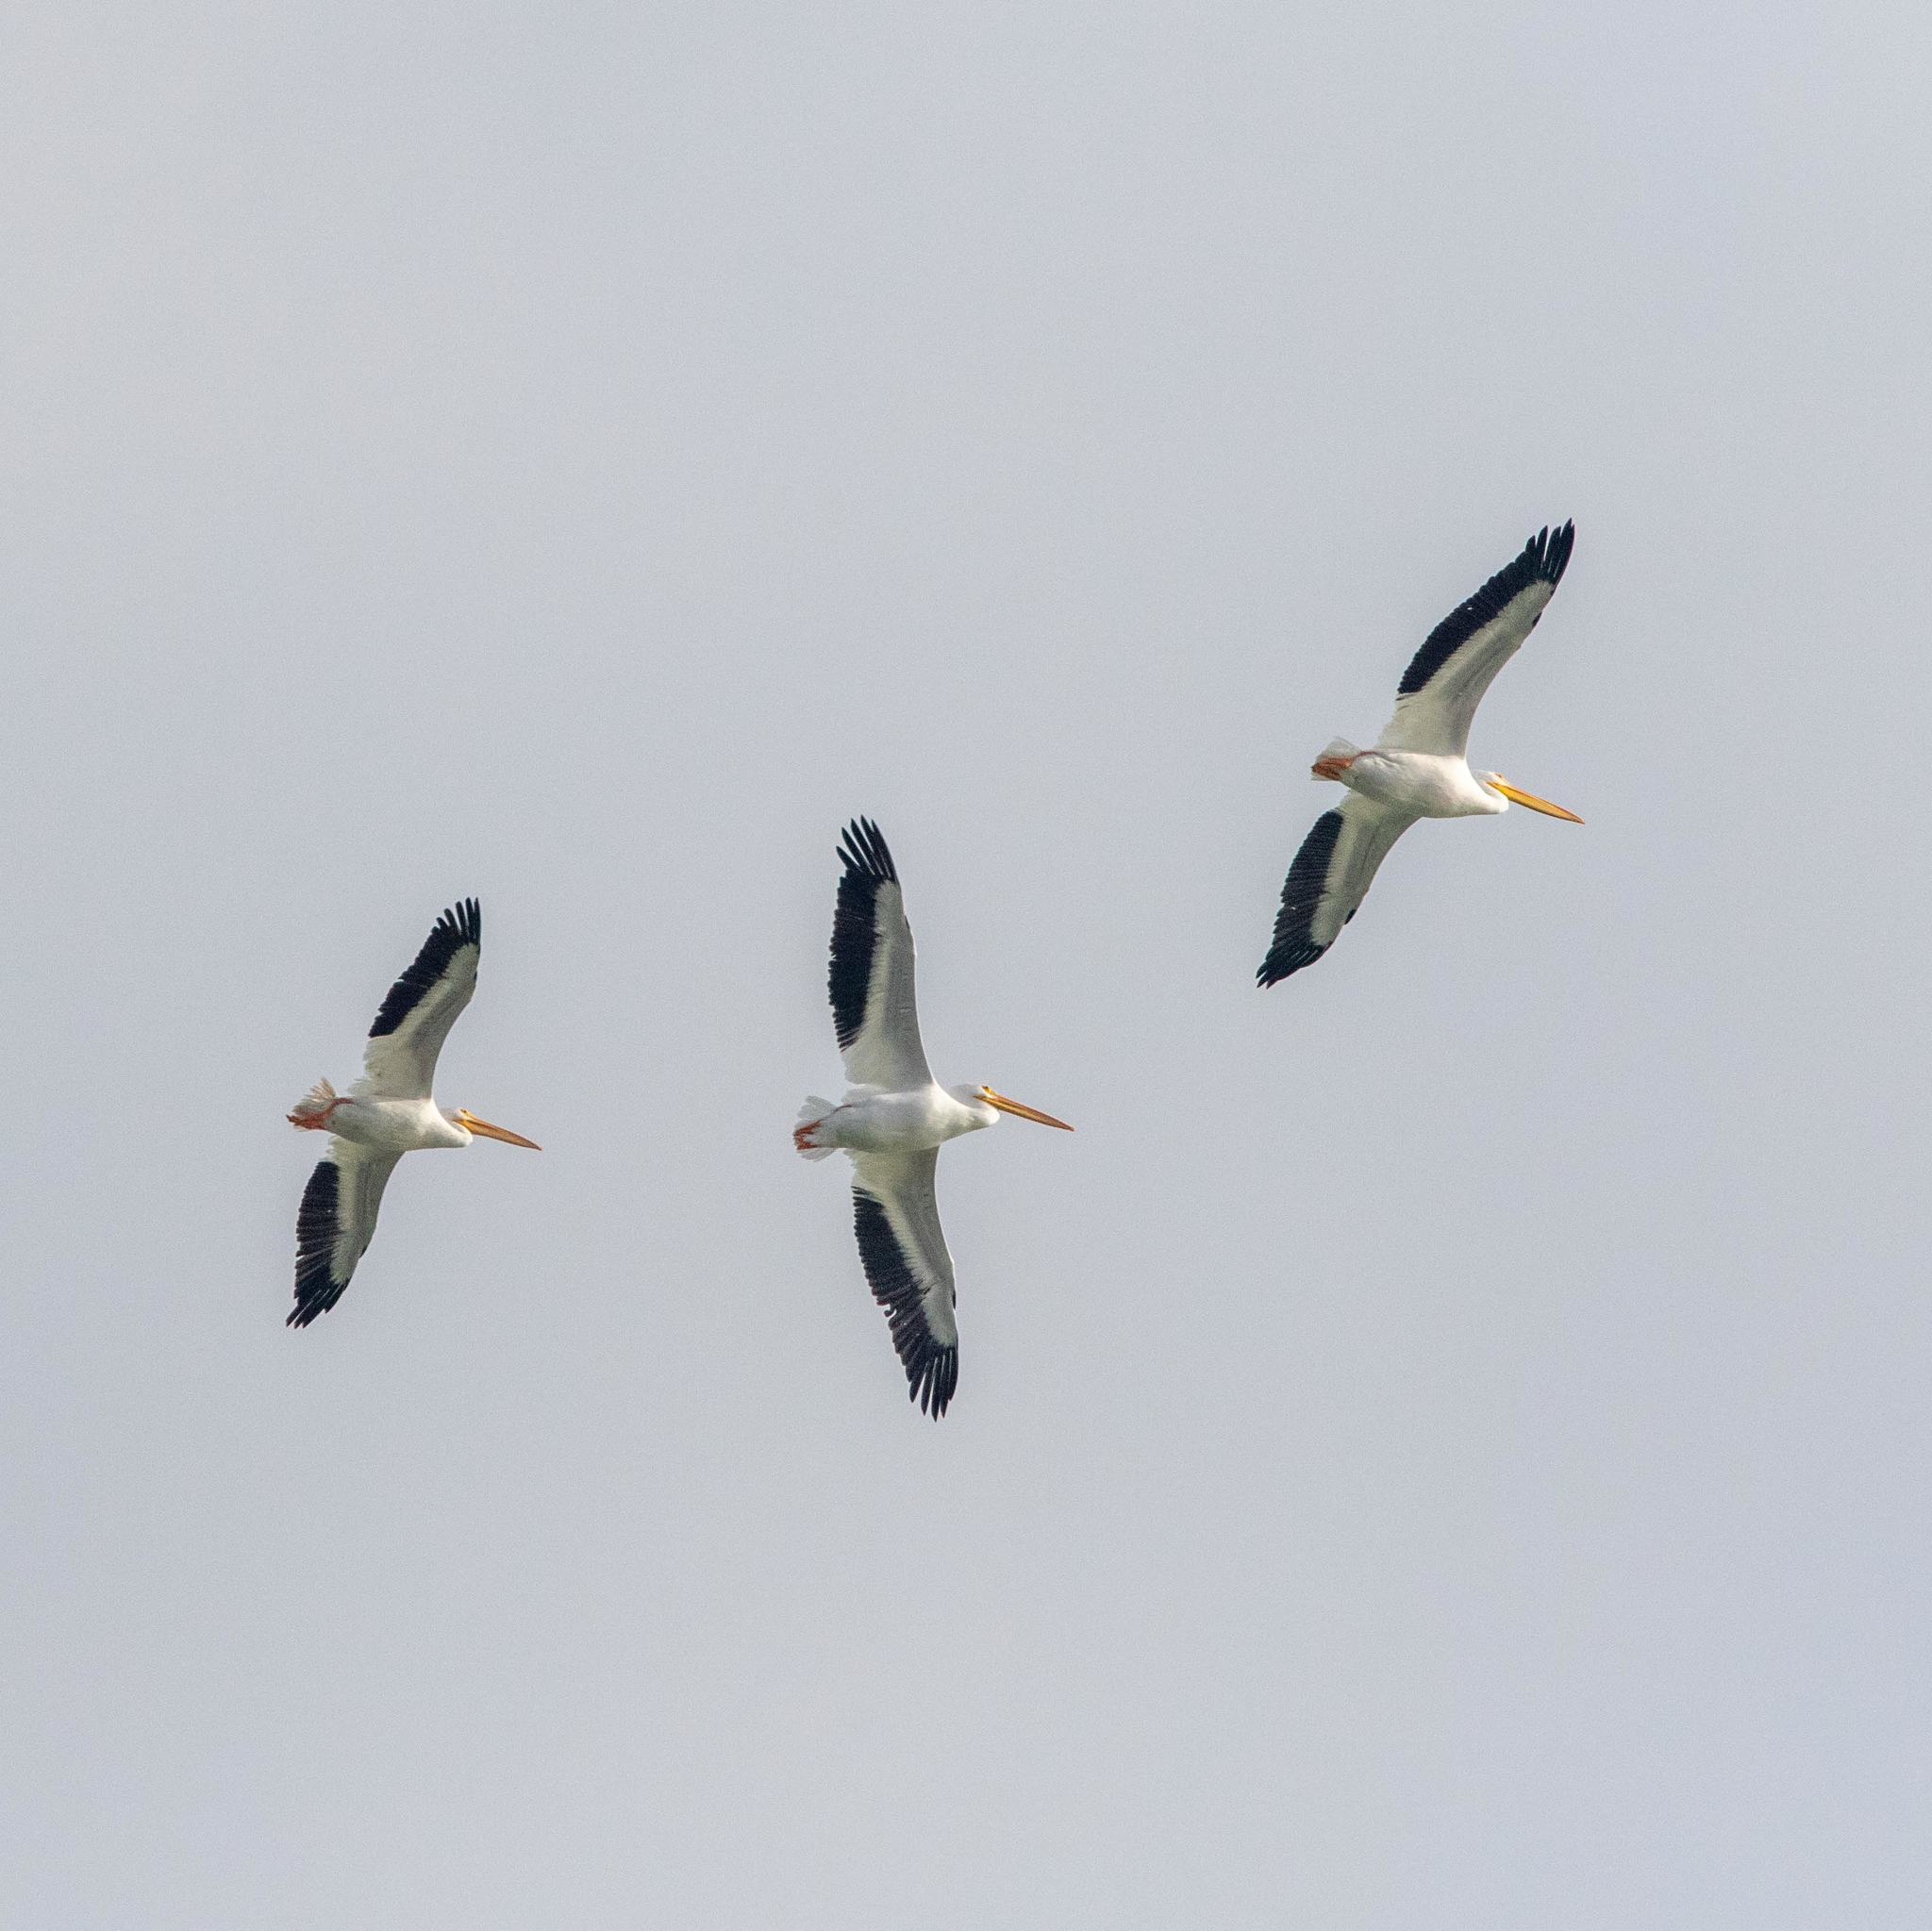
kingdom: Animalia
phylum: Chordata
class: Aves
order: Pelecaniformes
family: Pelecanidae
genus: Pelecanus
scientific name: Pelecanus erythrorhynchos
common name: American white pelican
